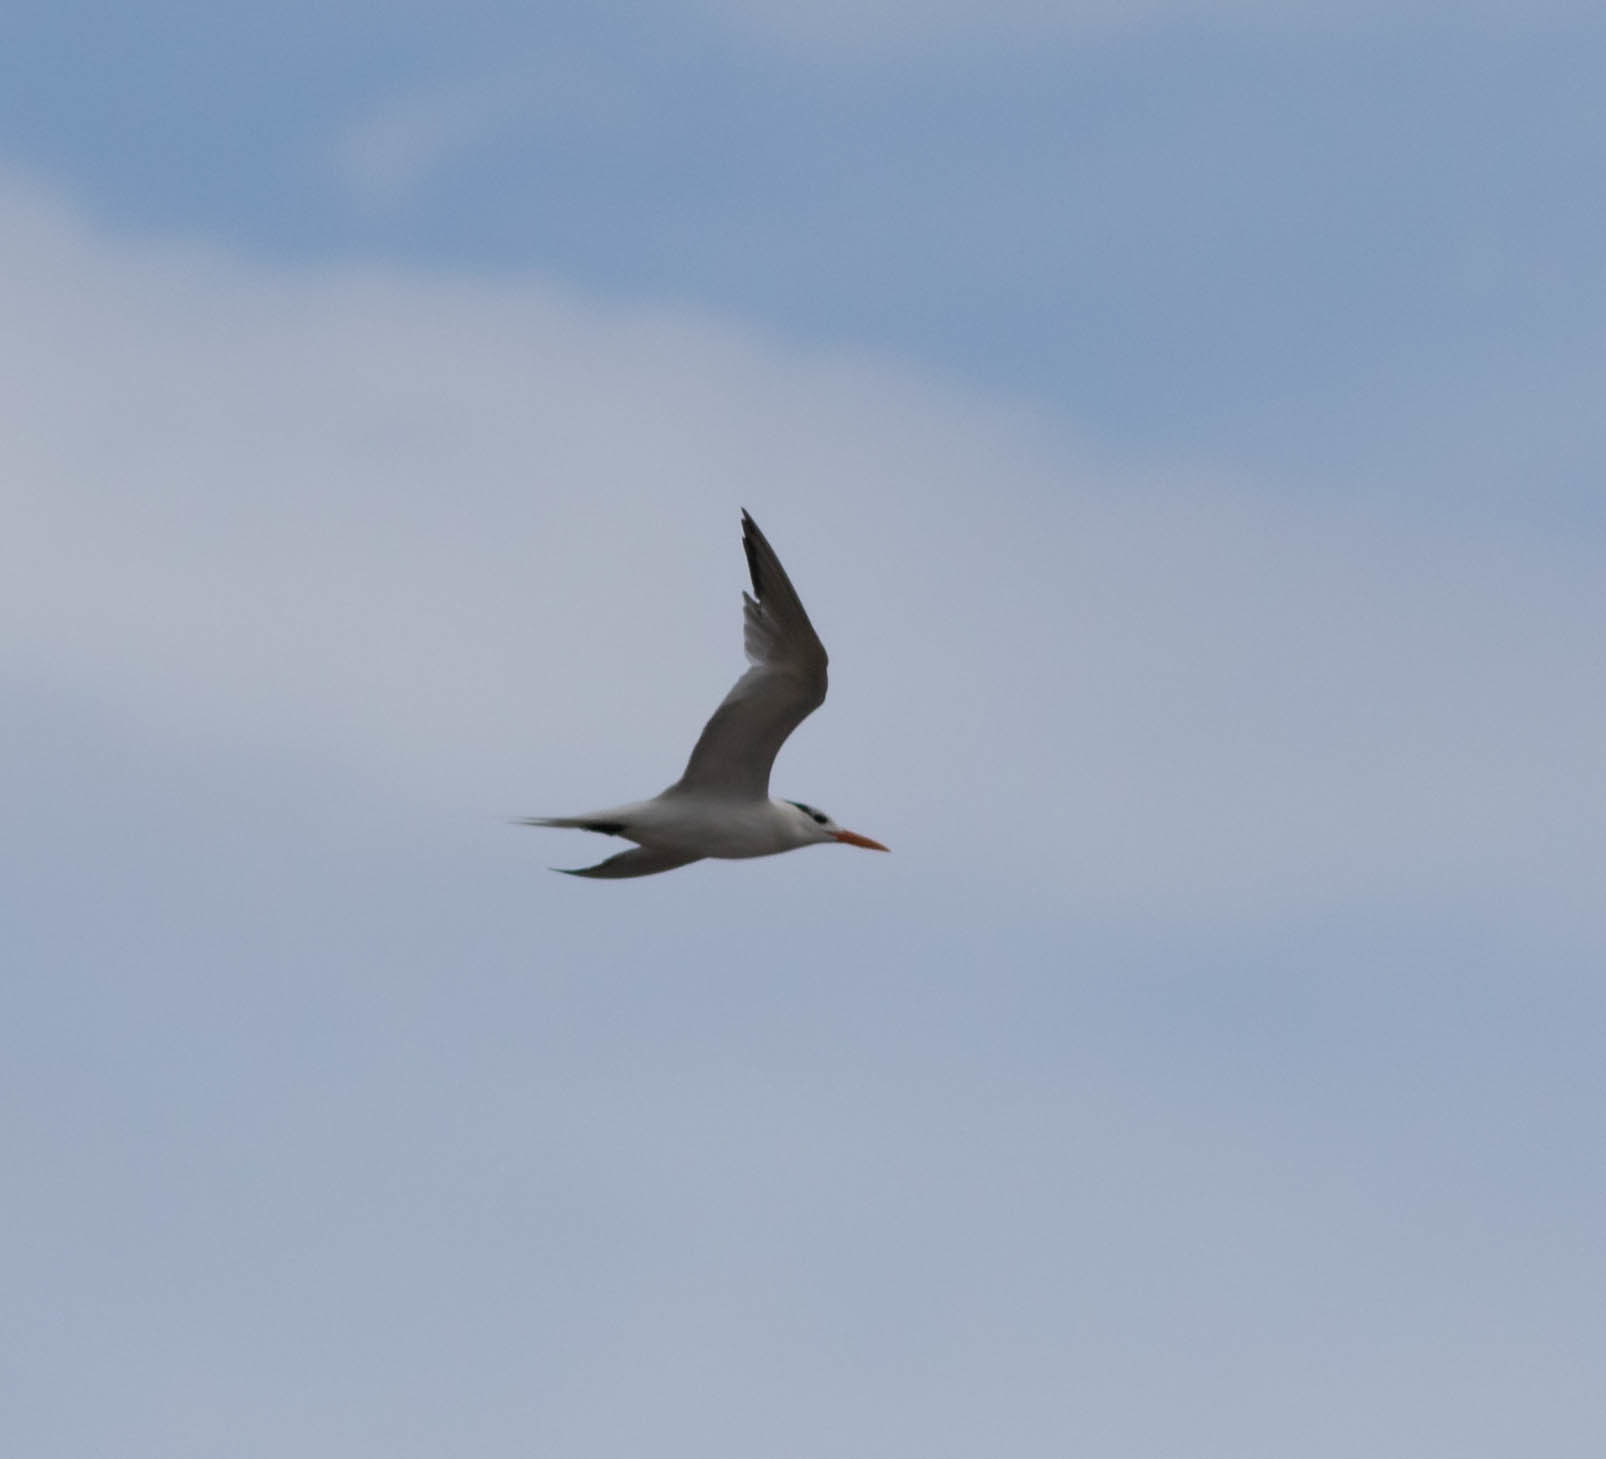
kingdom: Animalia
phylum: Chordata
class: Aves
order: Charadriiformes
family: Laridae
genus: Thalasseus
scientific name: Thalasseus maximus
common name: Royal tern
